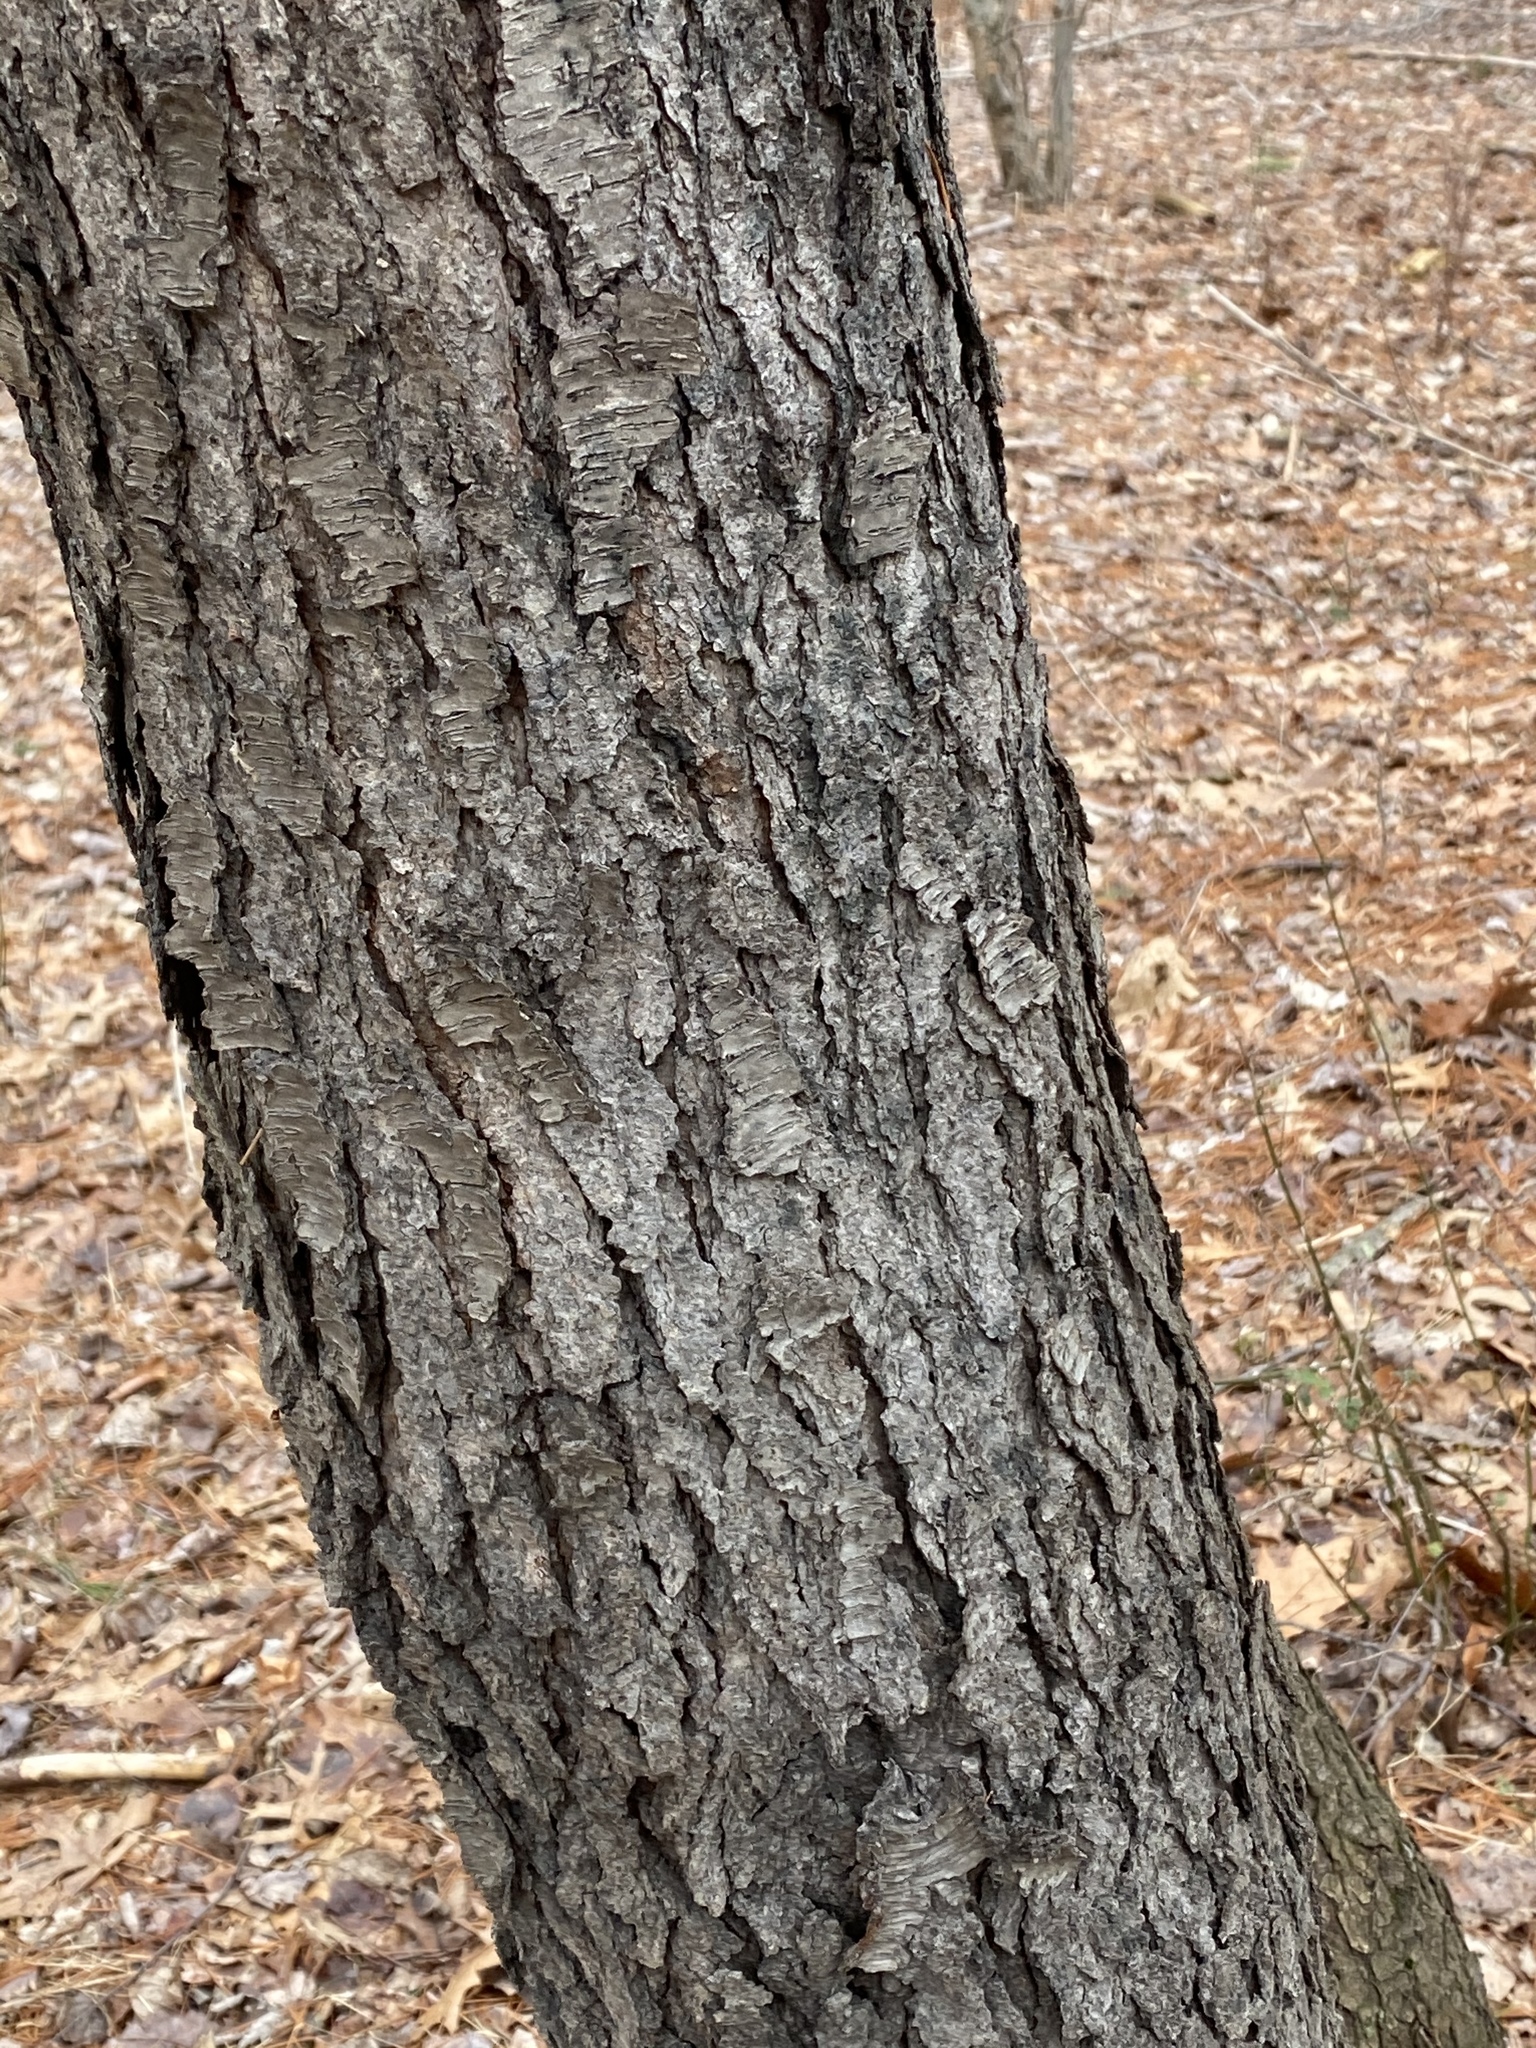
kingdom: Plantae
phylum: Tracheophyta
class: Magnoliopsida
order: Rosales
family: Rosaceae
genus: Prunus
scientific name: Prunus serotina
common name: Black cherry
